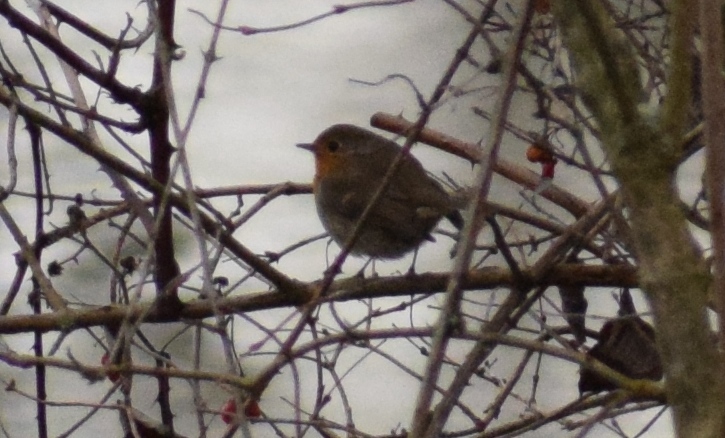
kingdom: Animalia
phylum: Chordata
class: Aves
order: Passeriformes
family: Muscicapidae
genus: Erithacus
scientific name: Erithacus rubecula
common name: European robin
